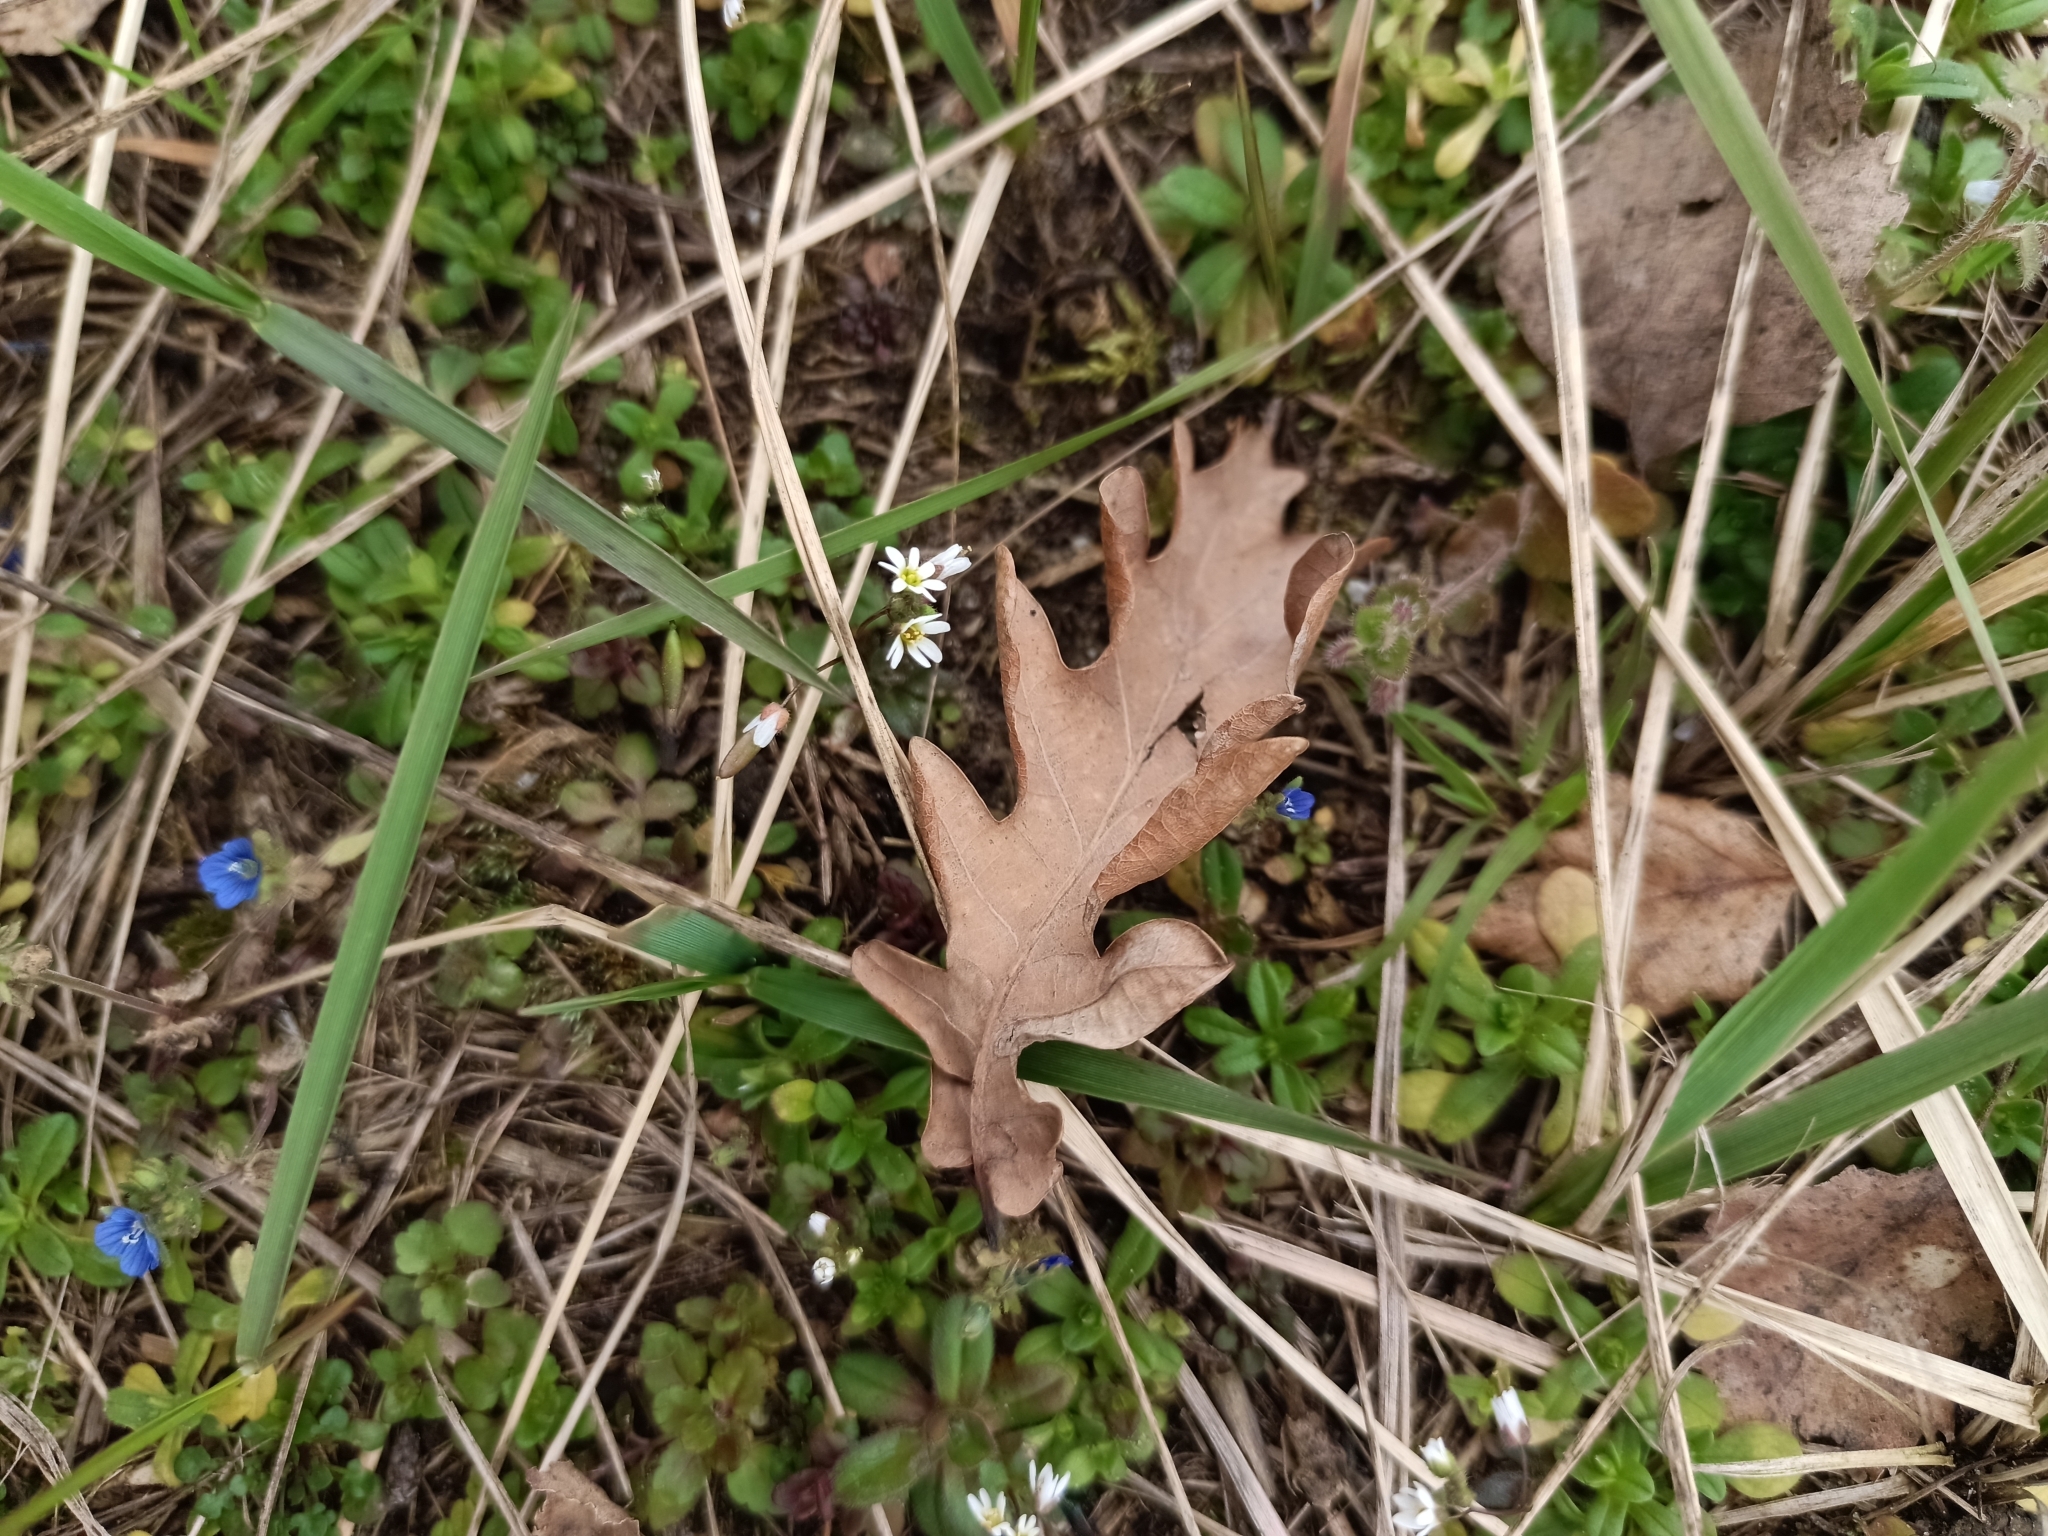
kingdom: Plantae
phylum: Tracheophyta
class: Magnoliopsida
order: Brassicales
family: Brassicaceae
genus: Draba
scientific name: Draba verna
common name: Spring draba
